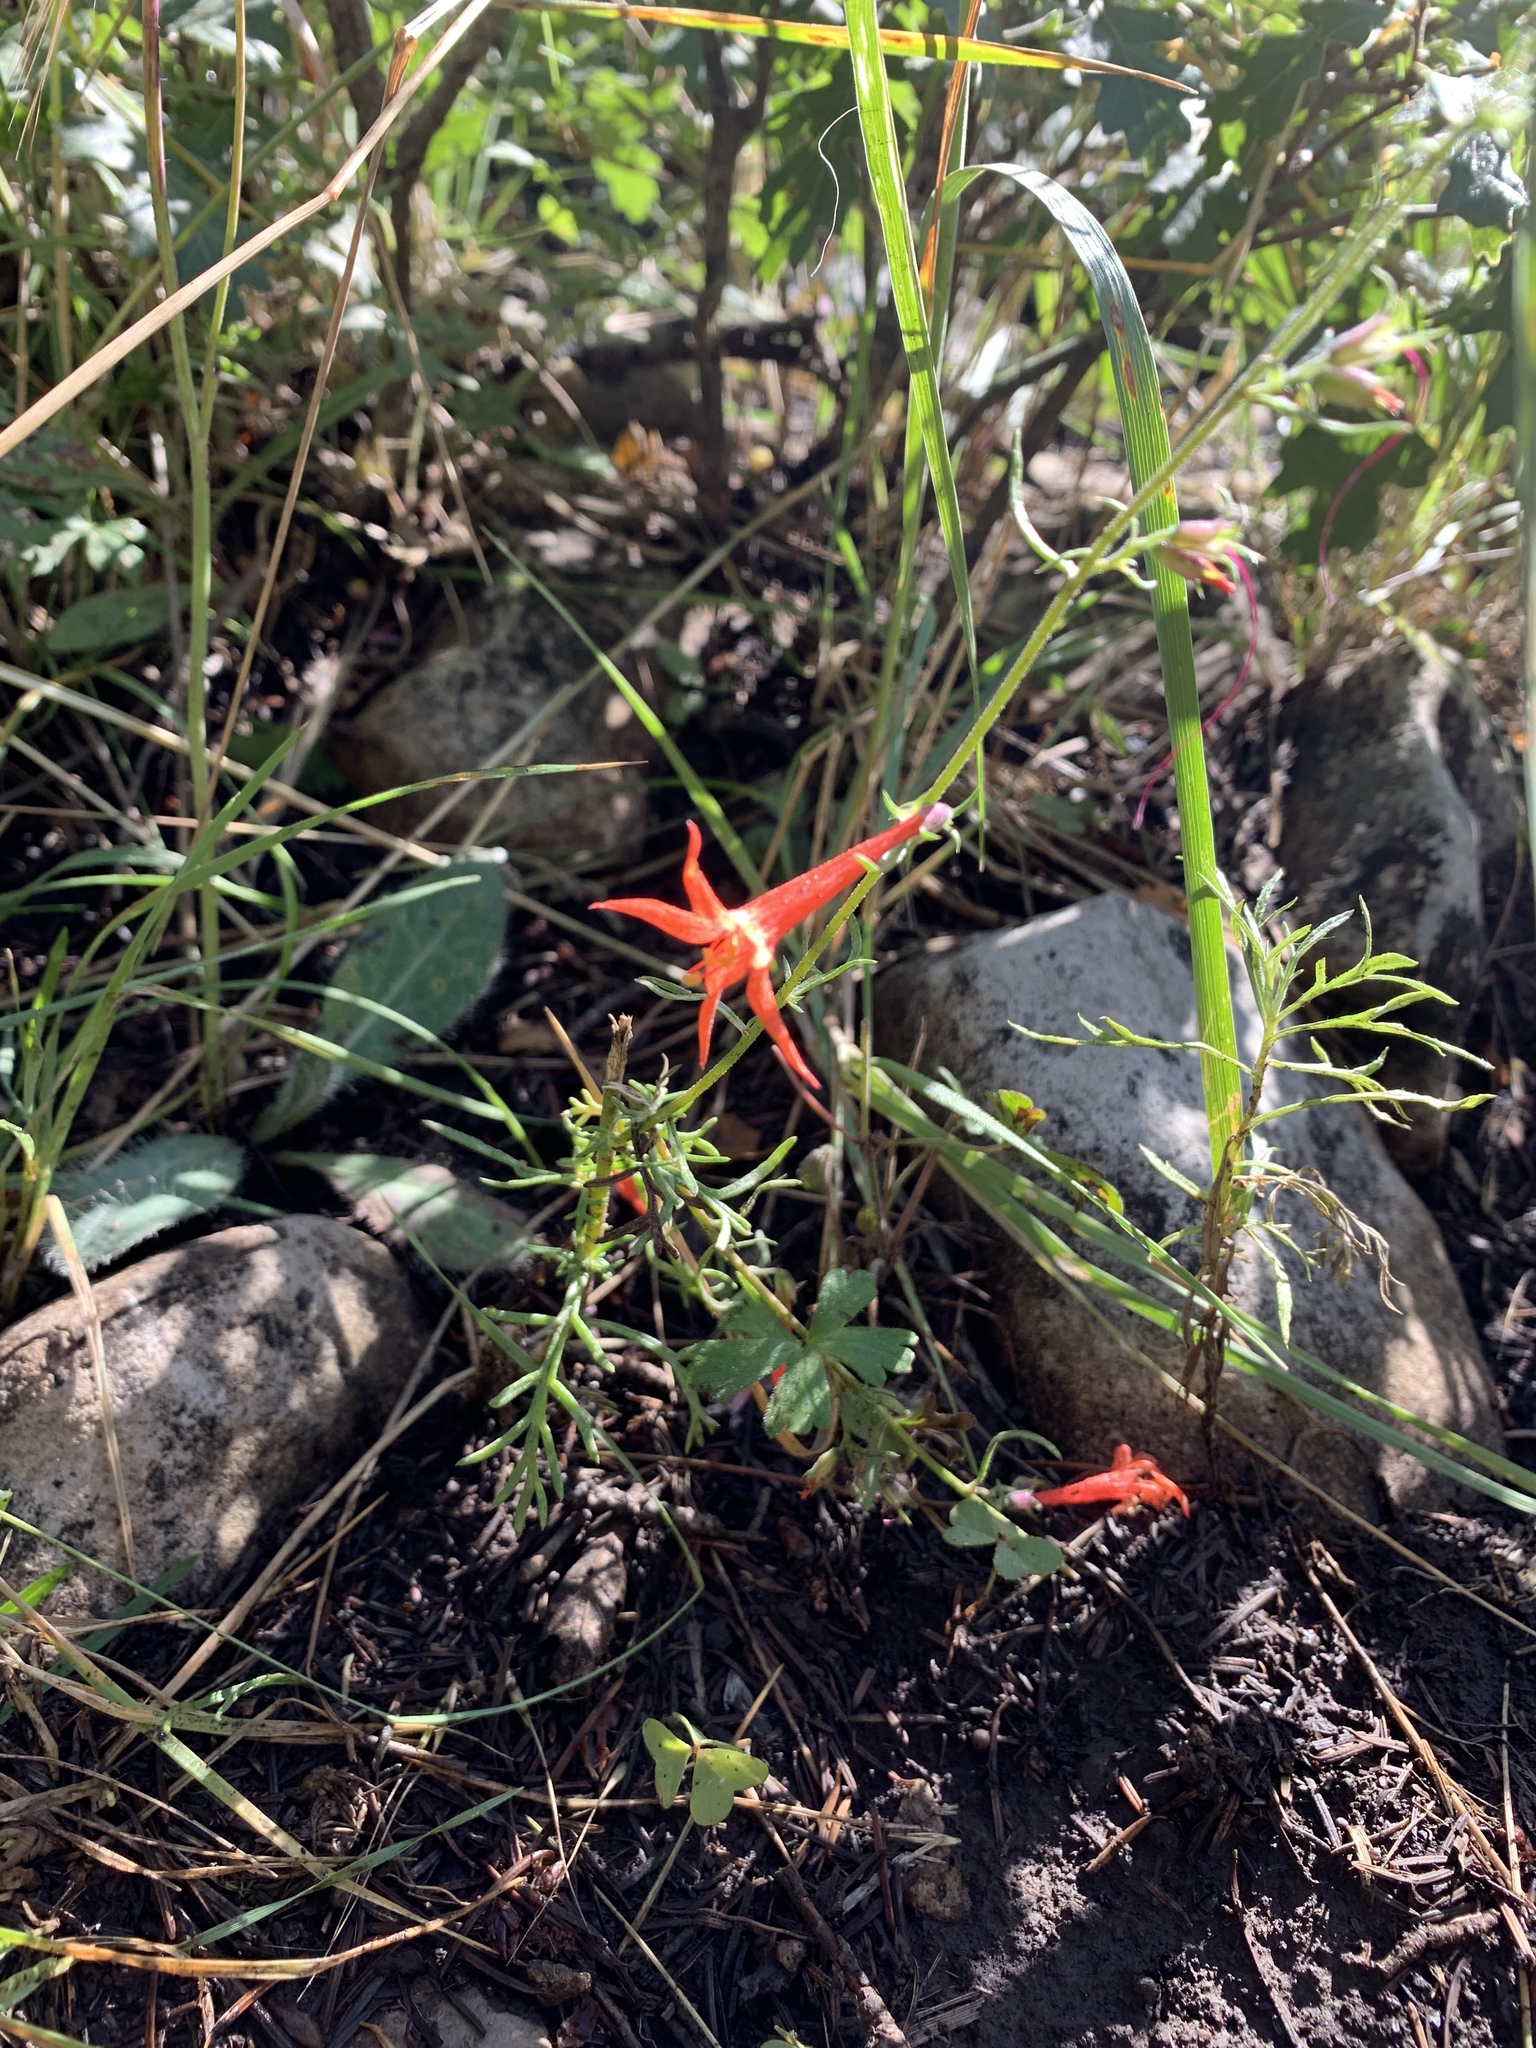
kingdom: Plantae
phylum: Tracheophyta
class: Magnoliopsida
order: Ericales
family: Polemoniaceae
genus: Ipomopsis
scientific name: Ipomopsis aggregata
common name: Scarlet gilia
